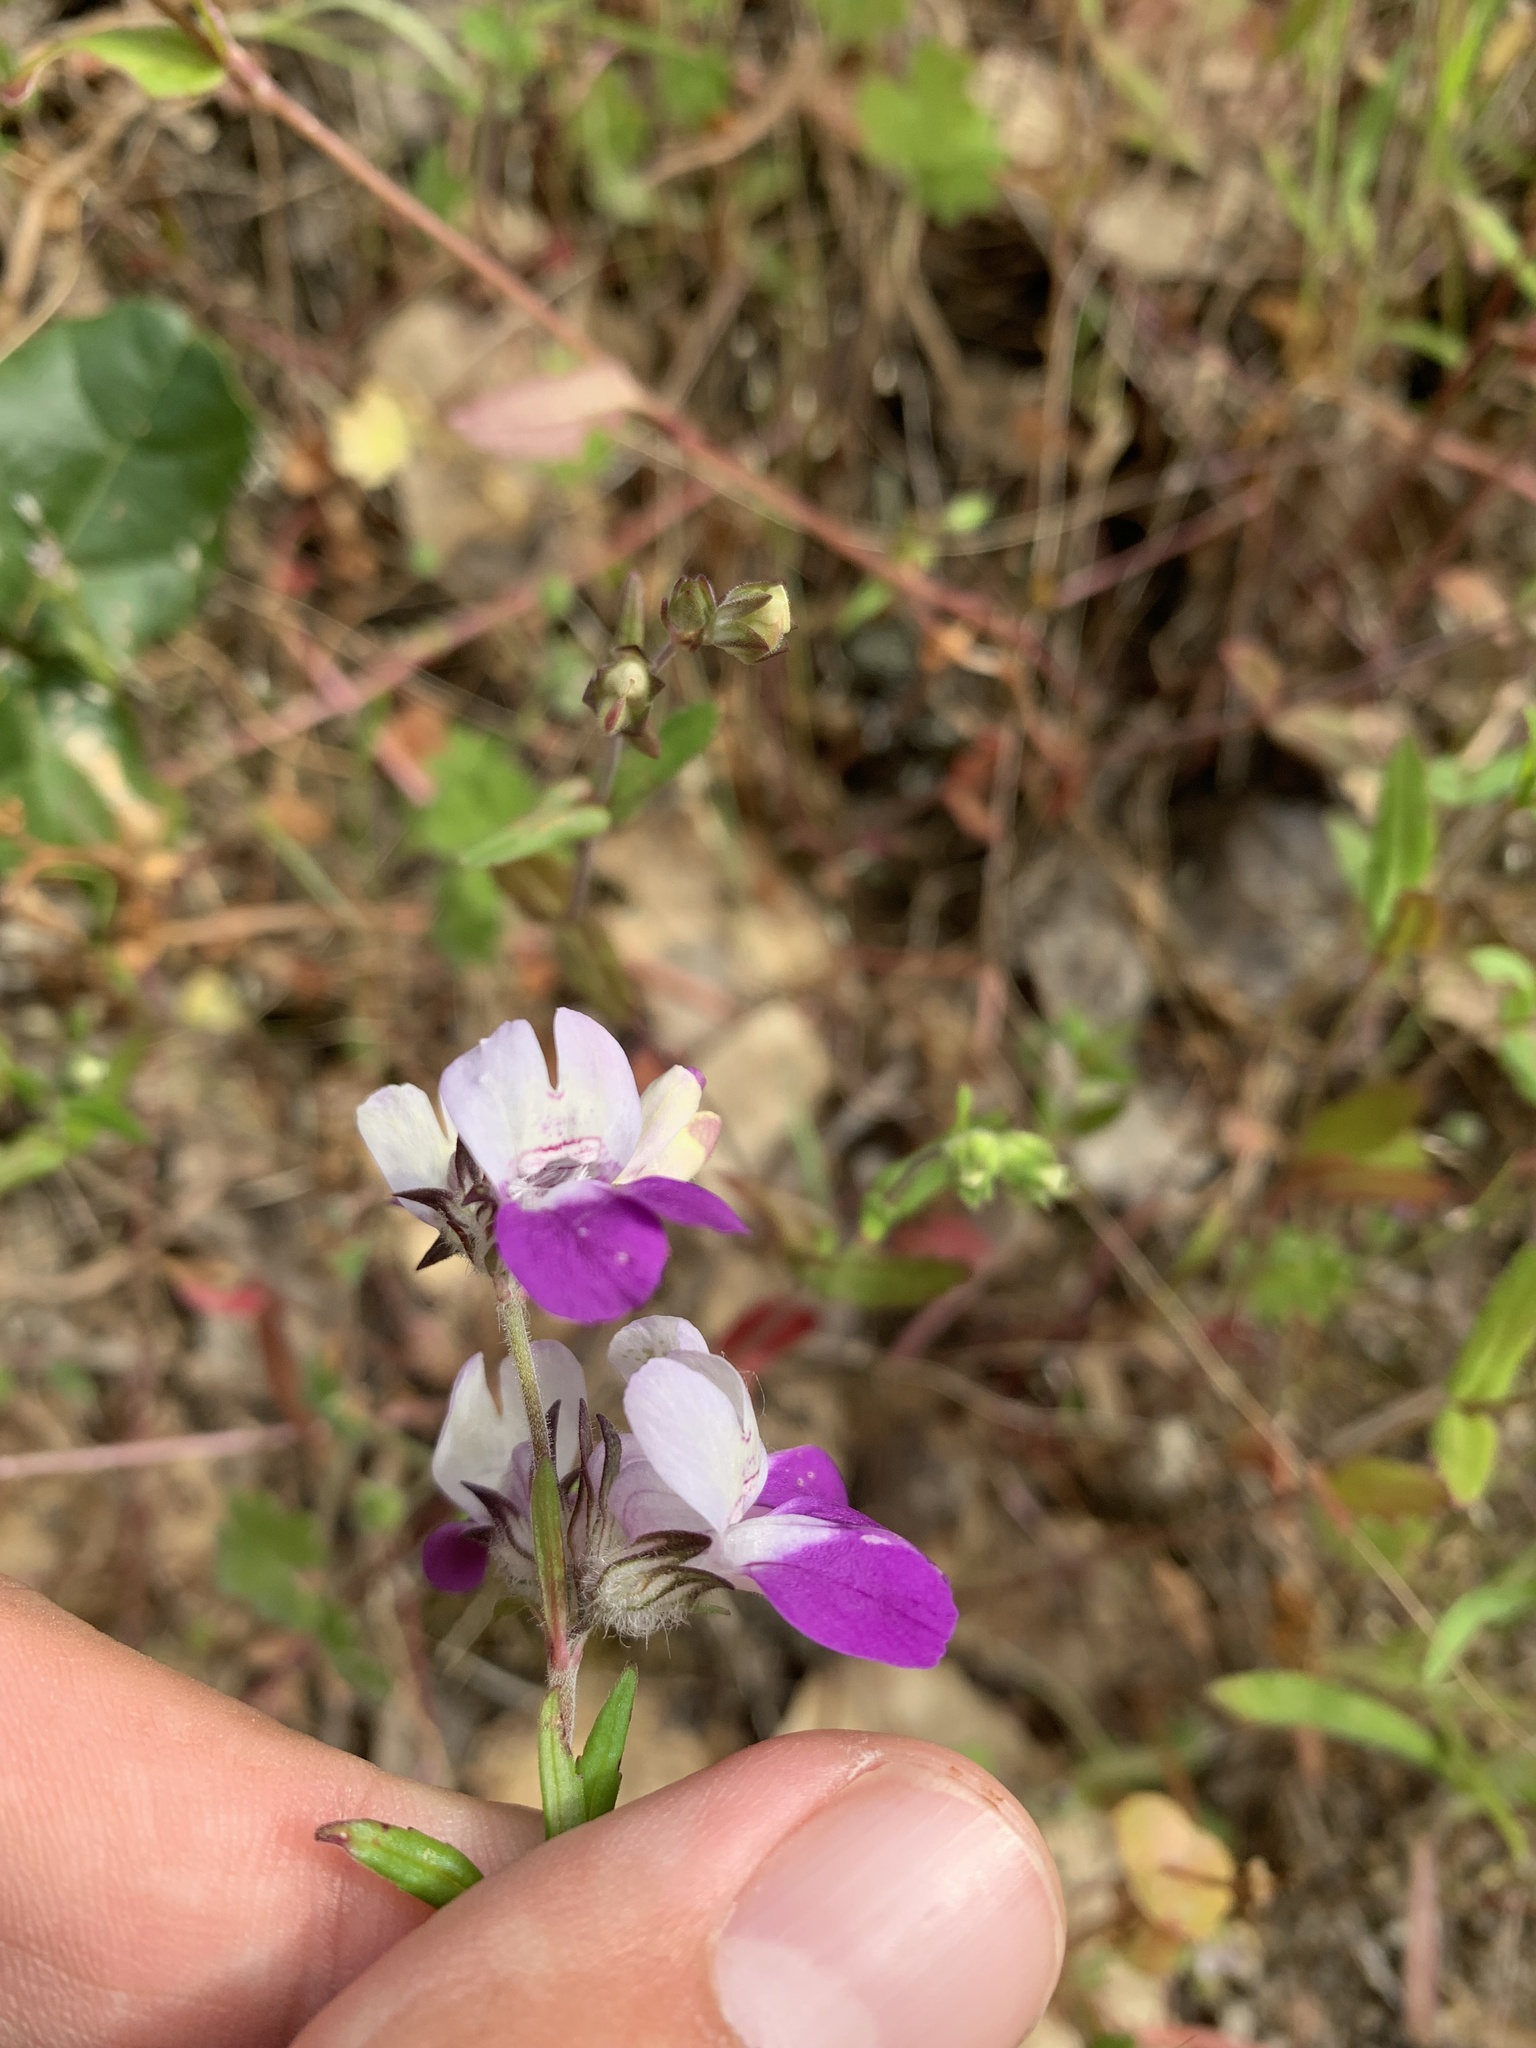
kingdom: Plantae
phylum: Tracheophyta
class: Magnoliopsida
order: Lamiales
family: Plantaginaceae
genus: Collinsia
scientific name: Collinsia heterophylla
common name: Chinese-houses
